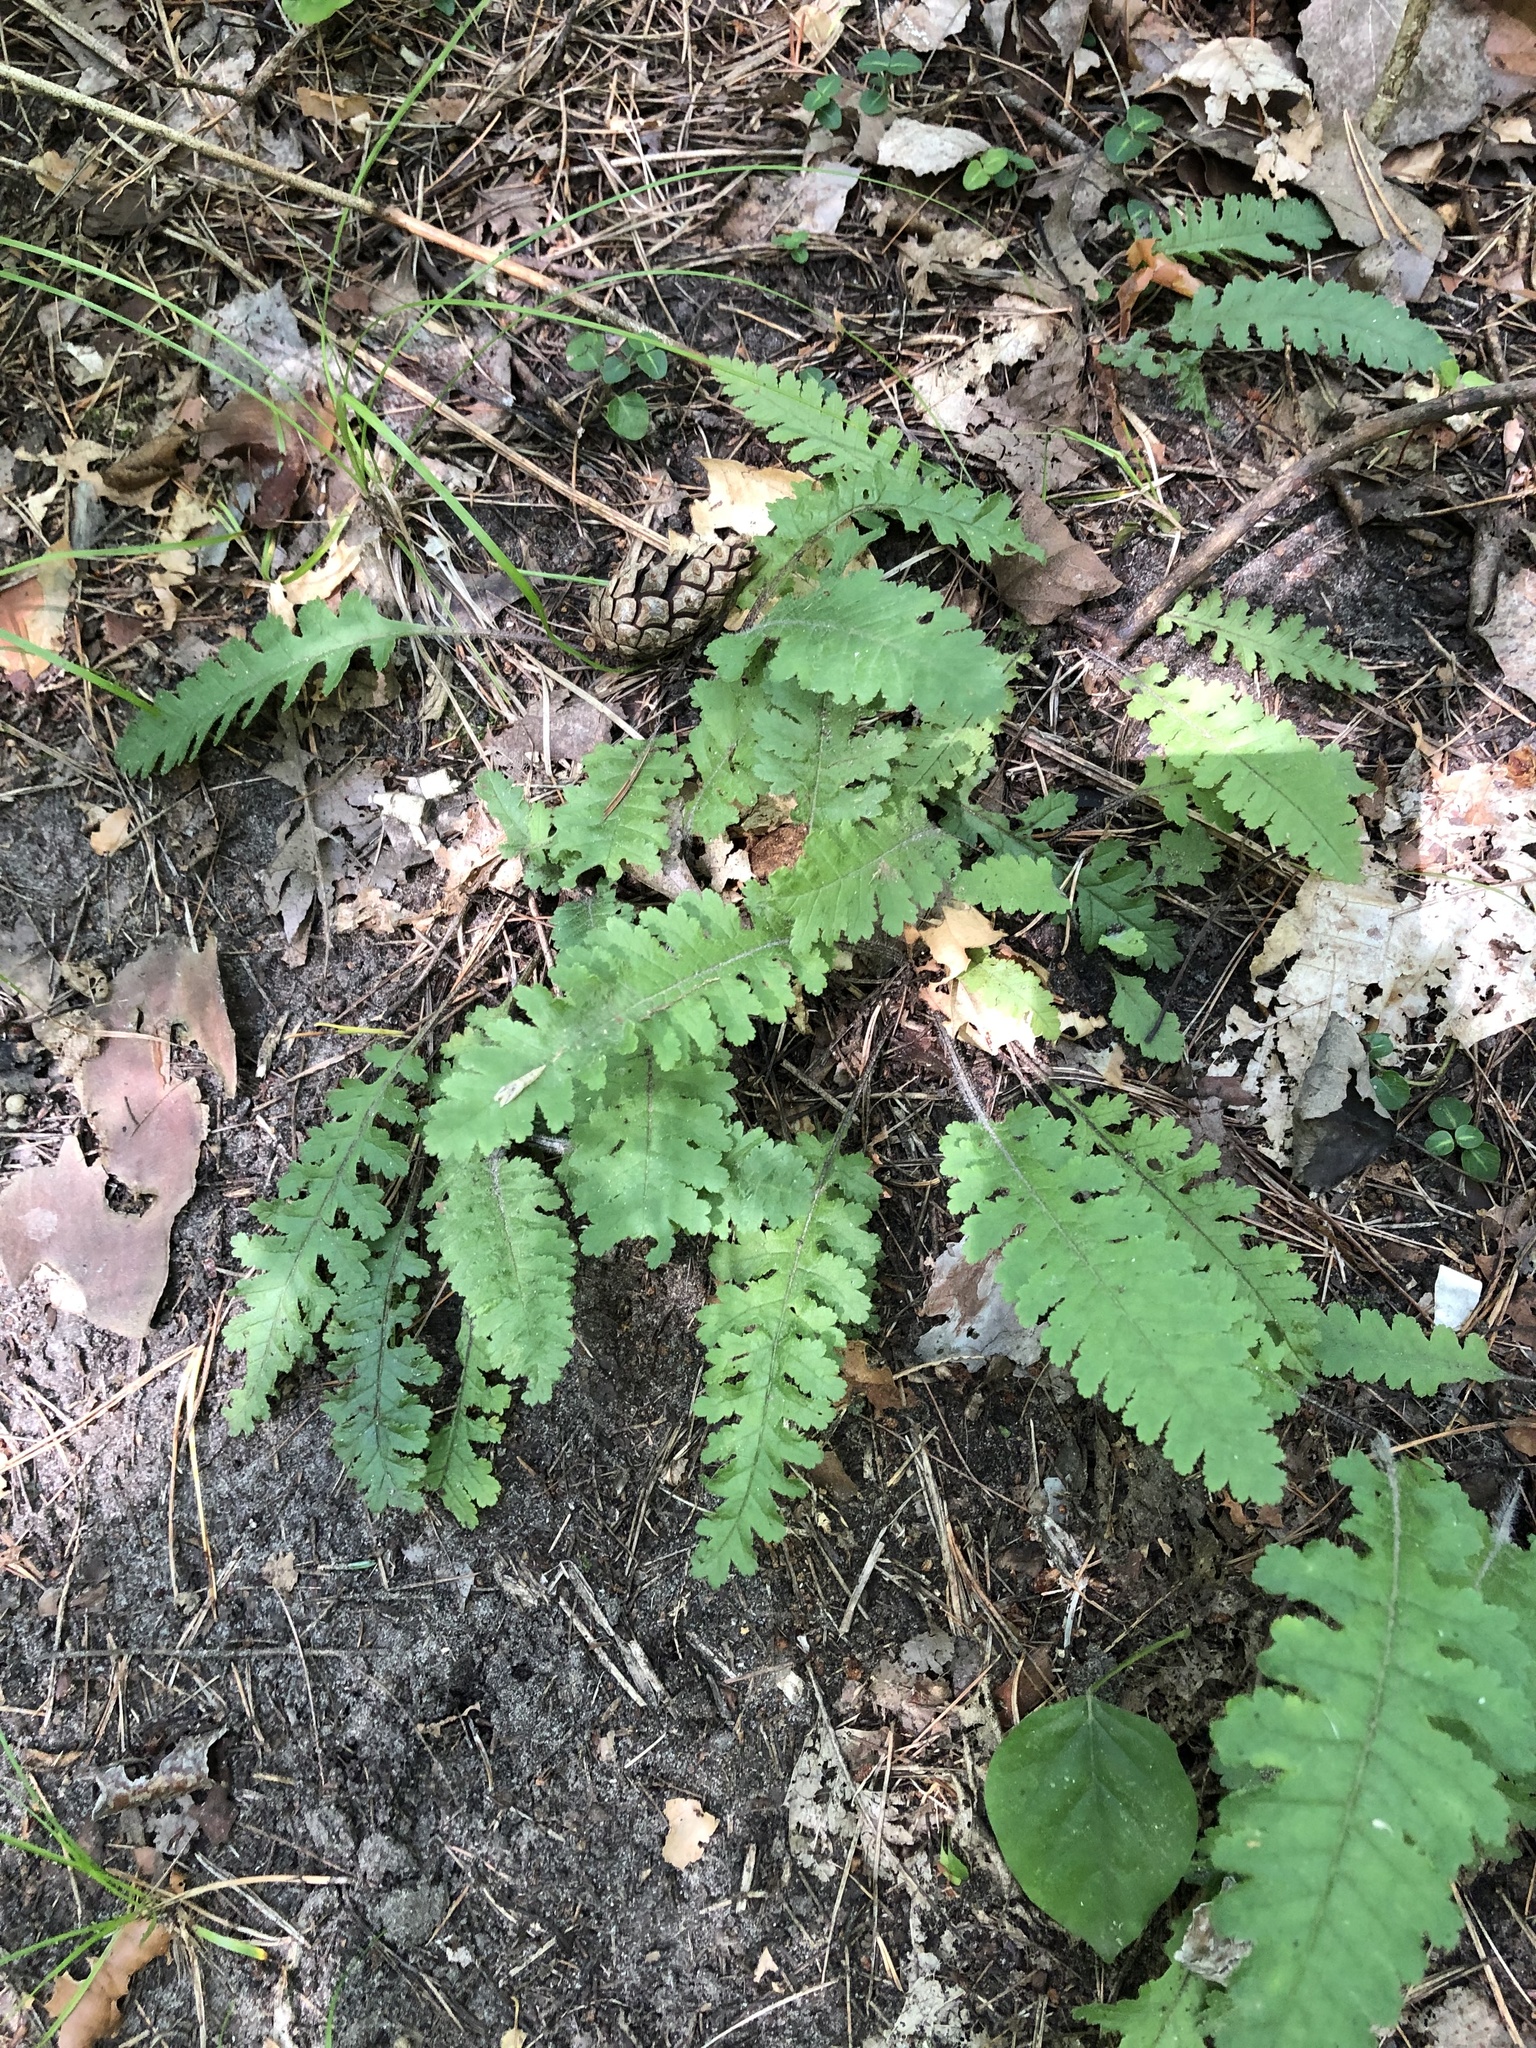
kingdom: Plantae
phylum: Tracheophyta
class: Magnoliopsida
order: Lamiales
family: Orobanchaceae
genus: Pedicularis
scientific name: Pedicularis canadensis
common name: Early lousewort
